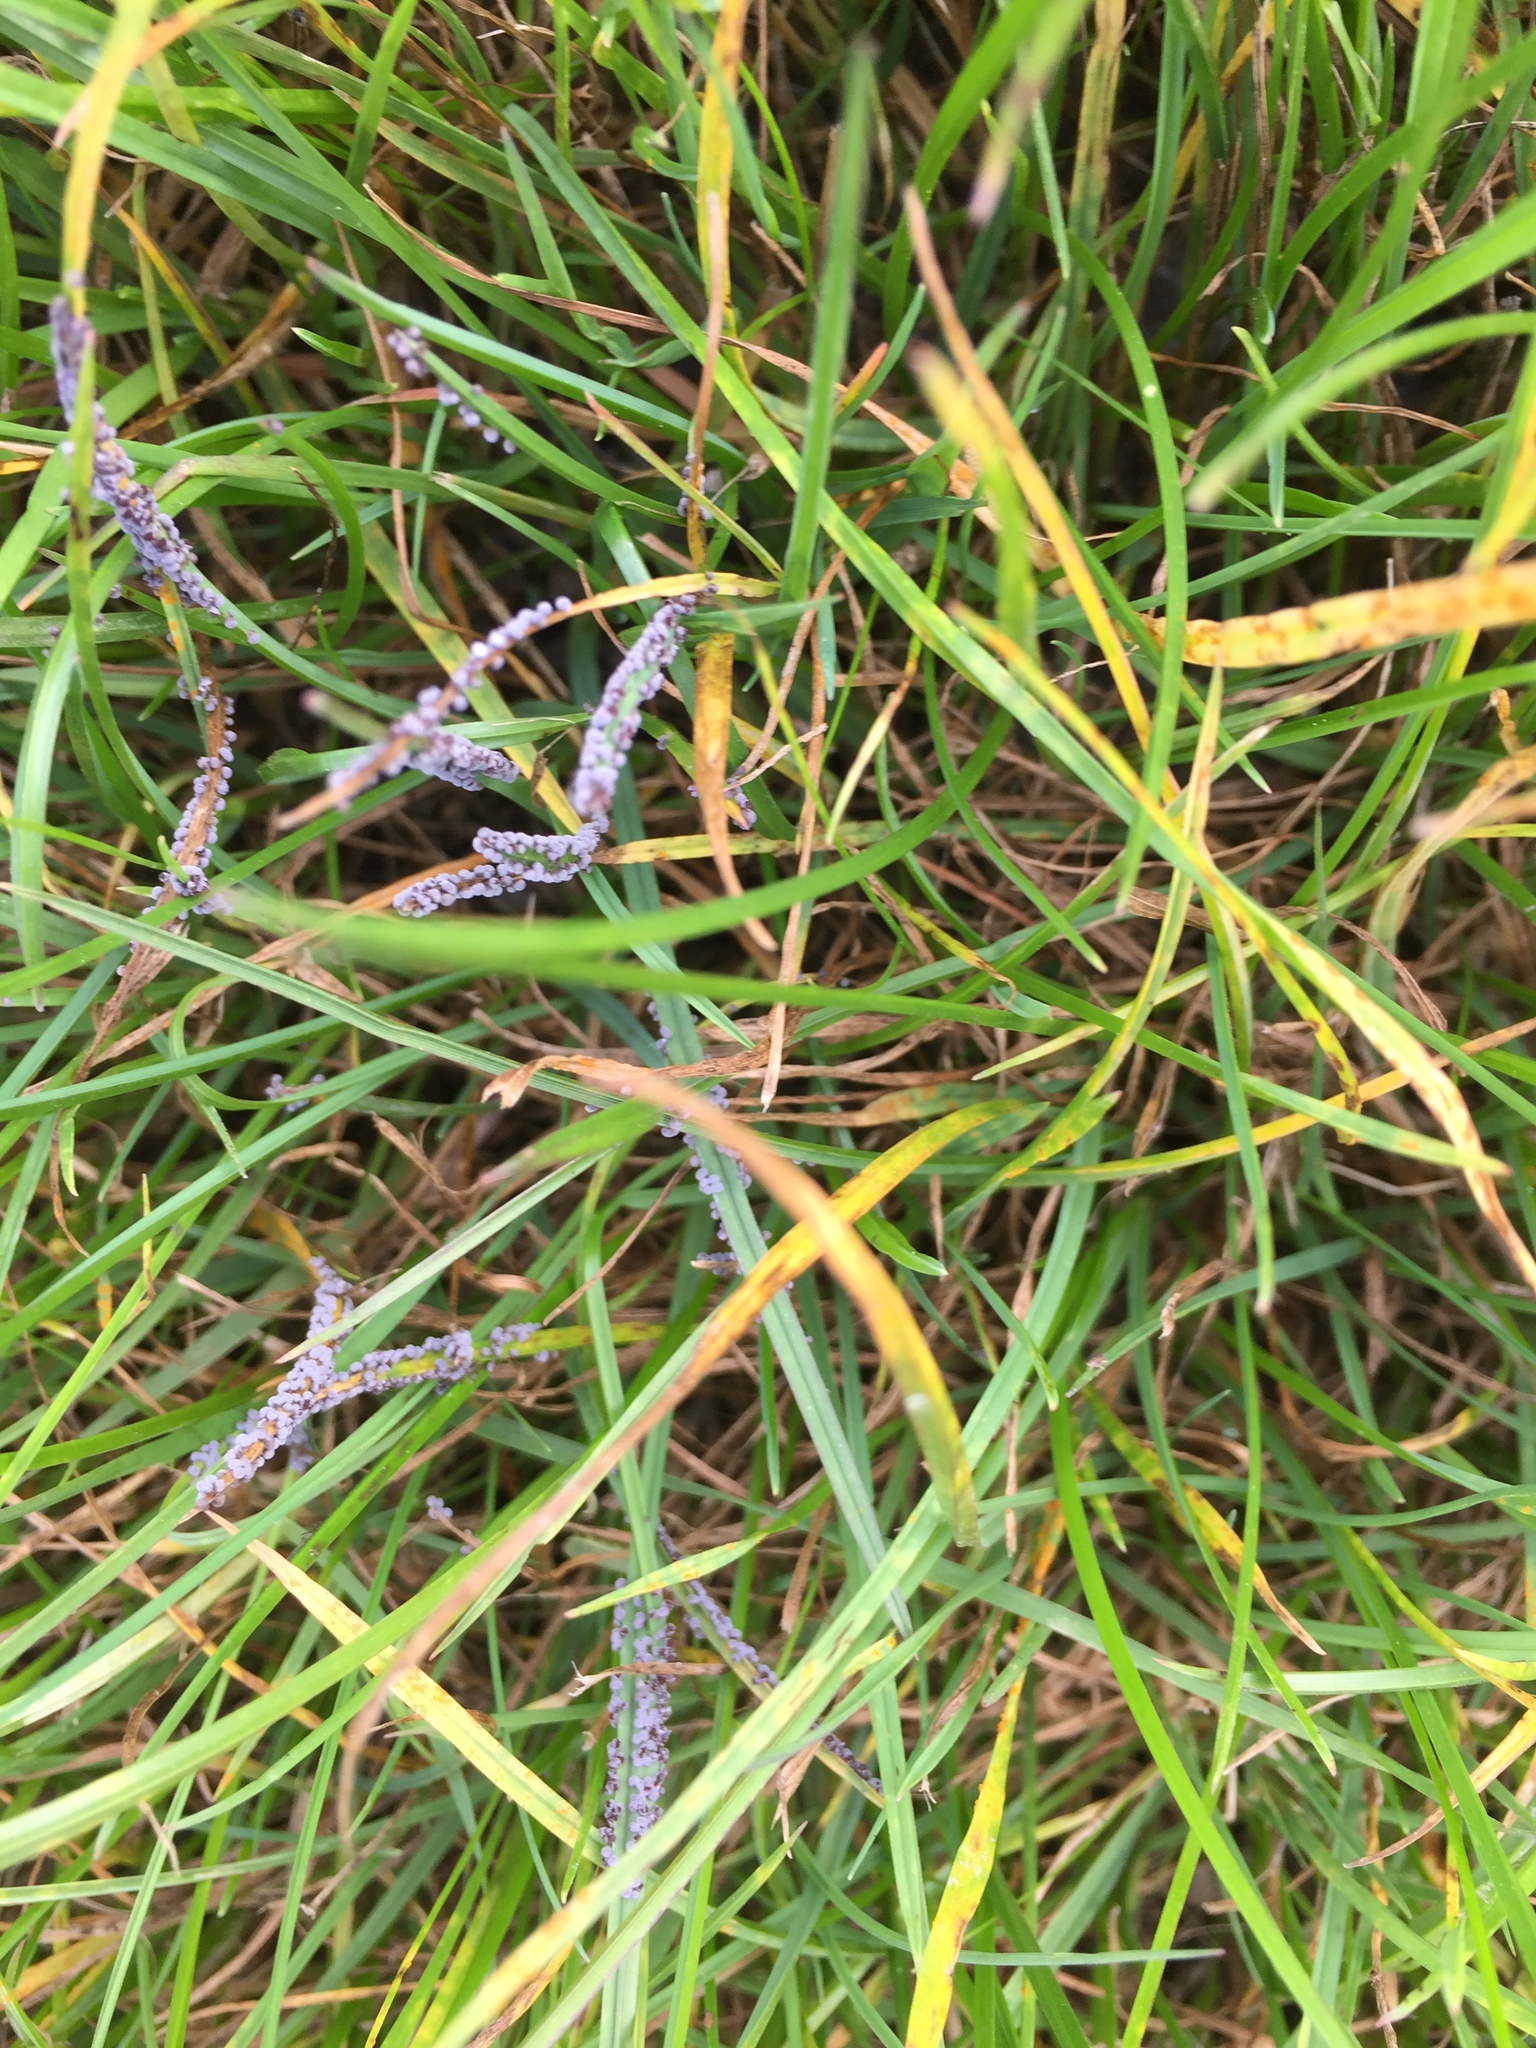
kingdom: Protozoa
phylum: Mycetozoa
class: Myxomycetes
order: Physarales
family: Physaraceae
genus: Physarum
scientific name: Physarum cinereum
